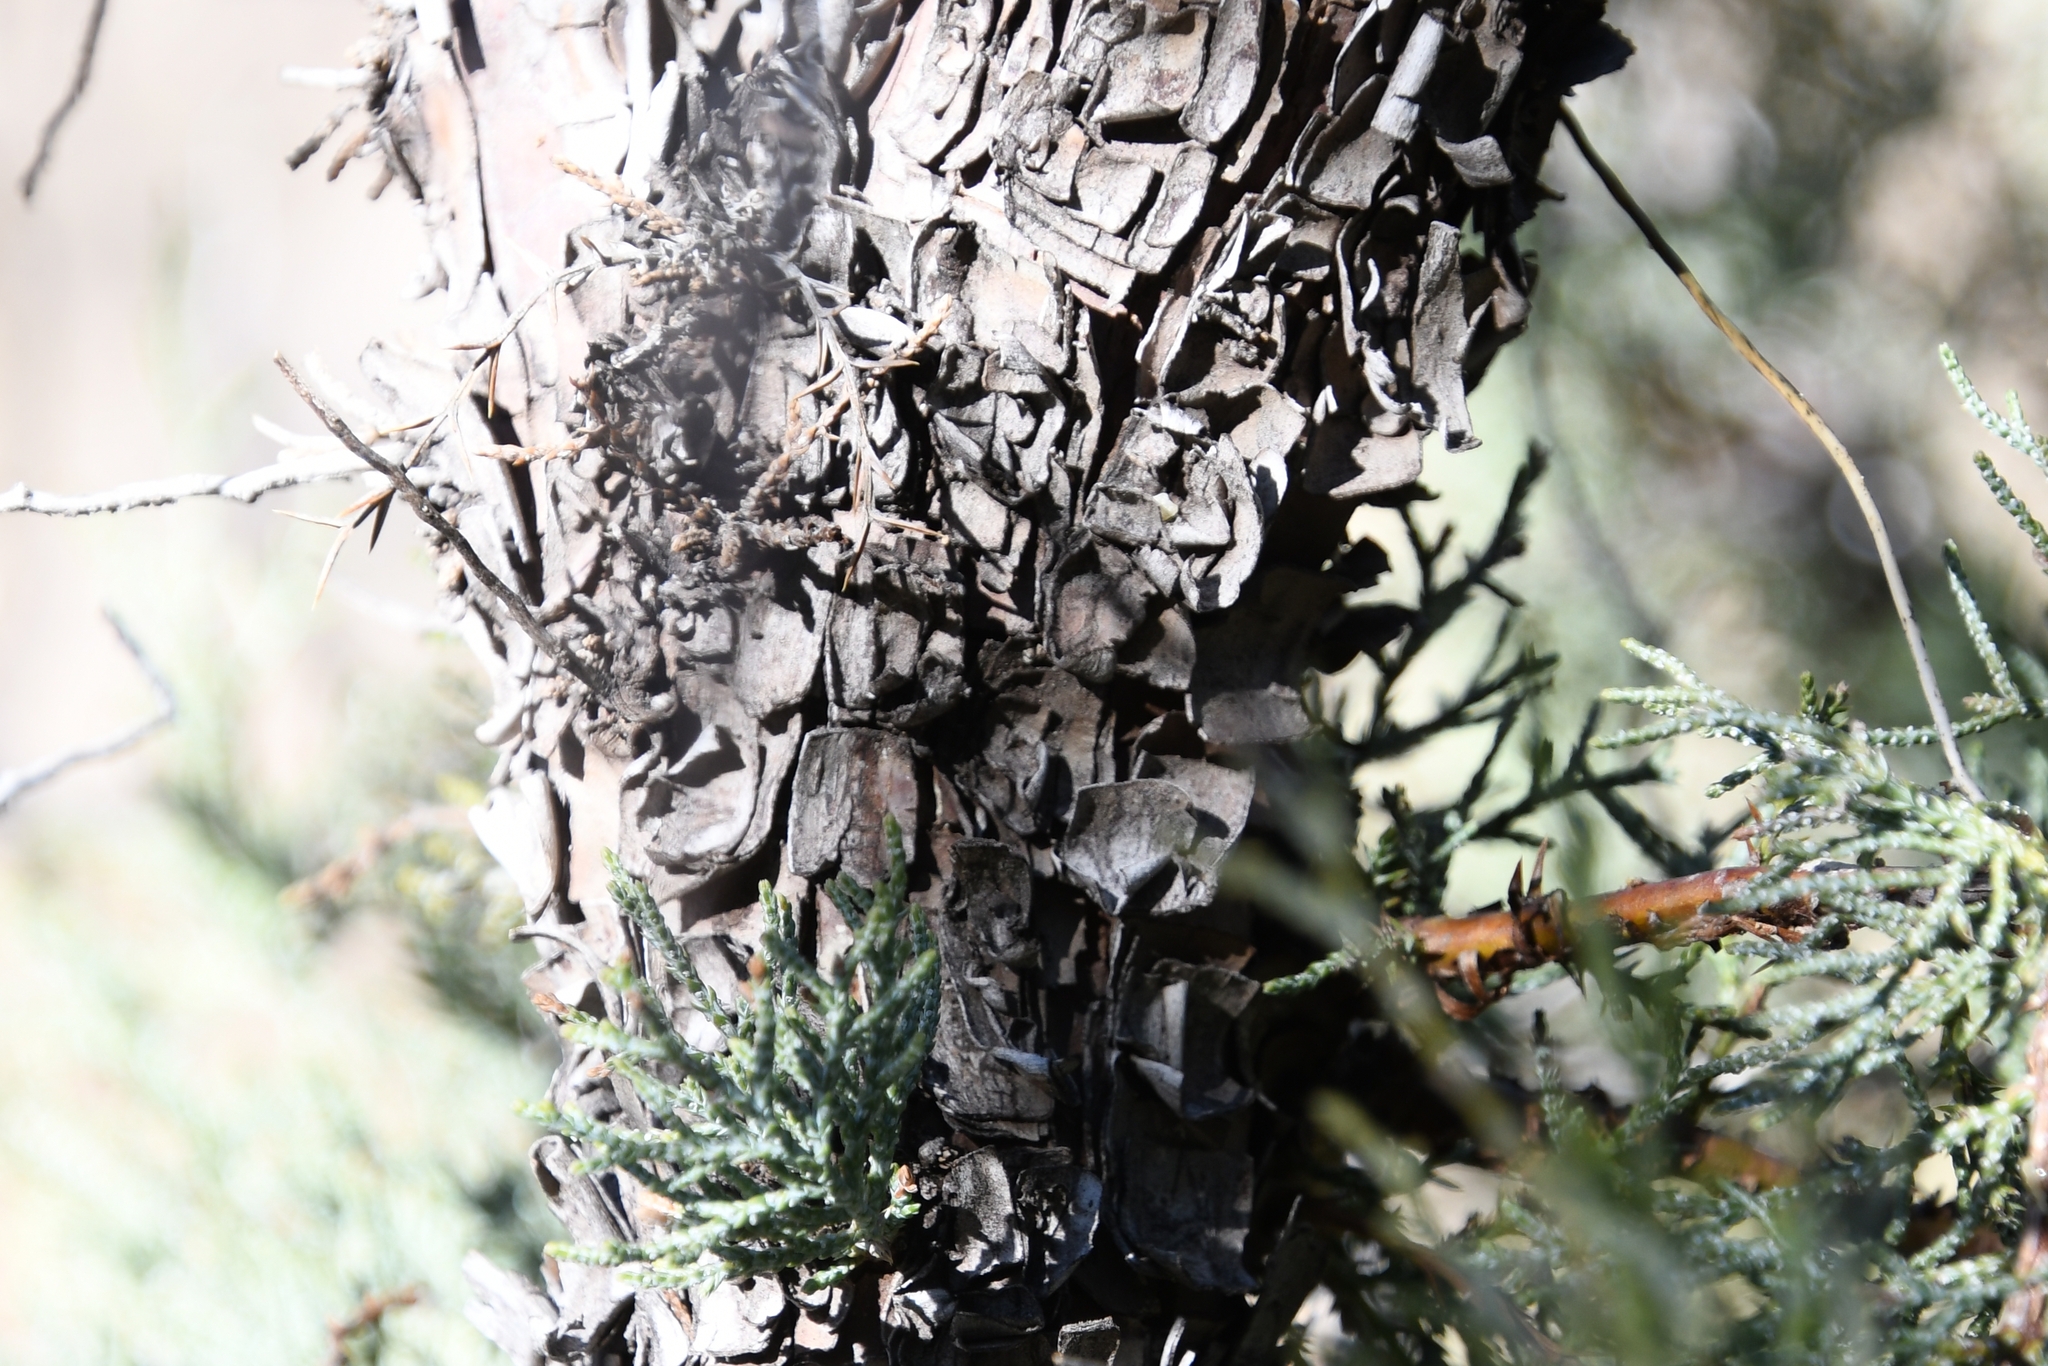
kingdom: Plantae
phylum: Tracheophyta
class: Pinopsida
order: Pinales
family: Cupressaceae
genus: Juniperus
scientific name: Juniperus deppeana
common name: Alligator juniper
